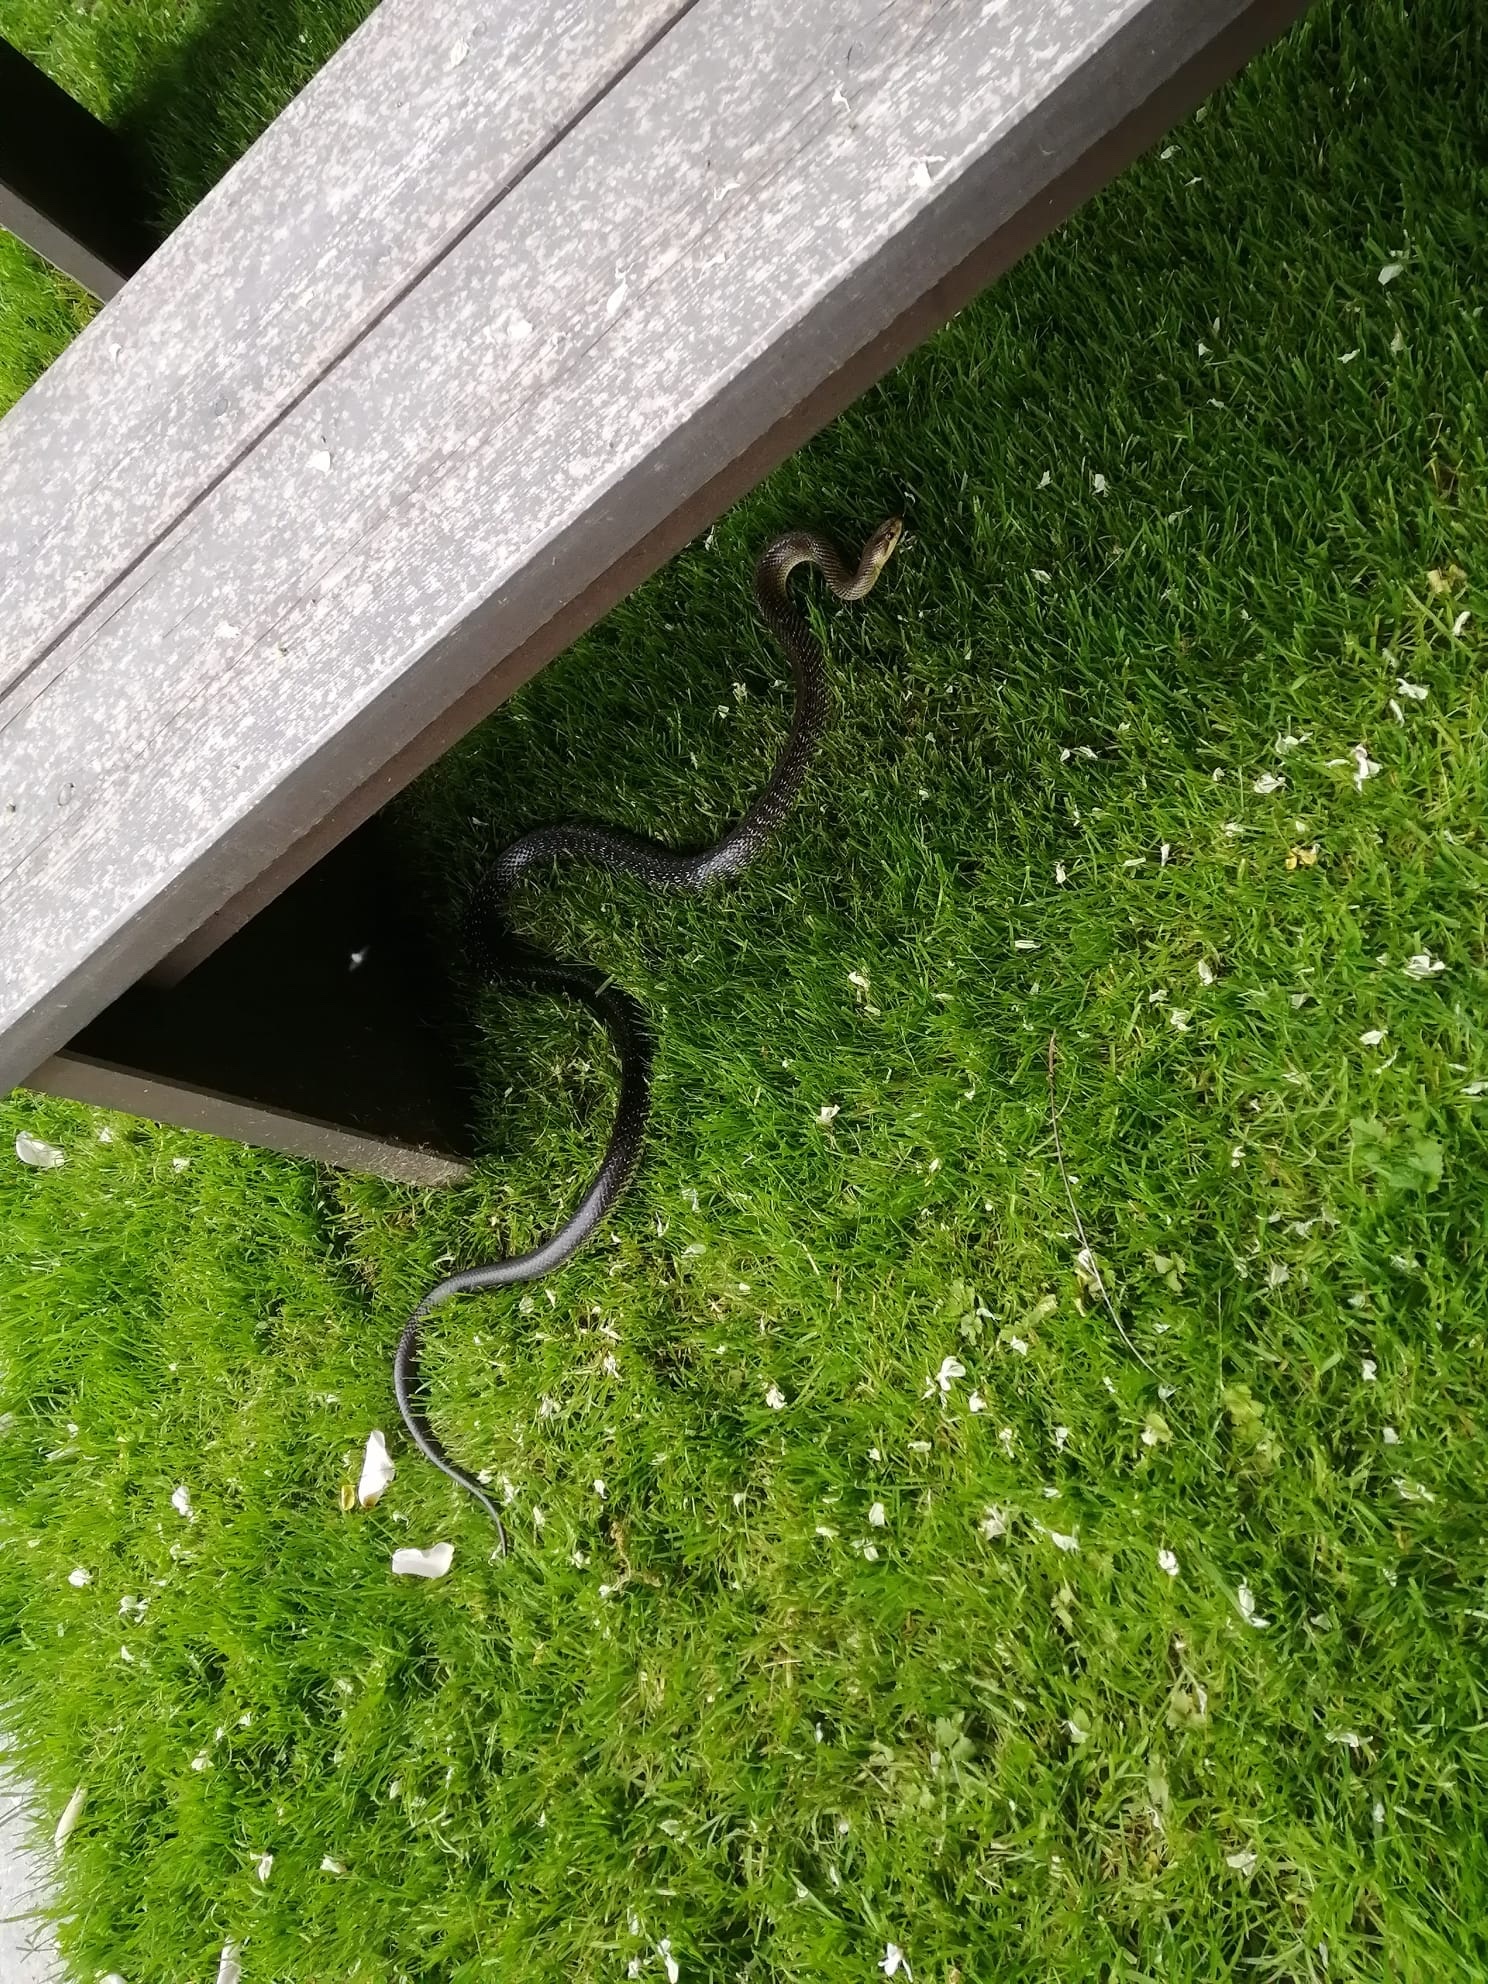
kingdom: Animalia
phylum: Chordata
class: Squamata
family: Colubridae
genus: Zamenis
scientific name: Zamenis longissimus
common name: Aesculapean snake
